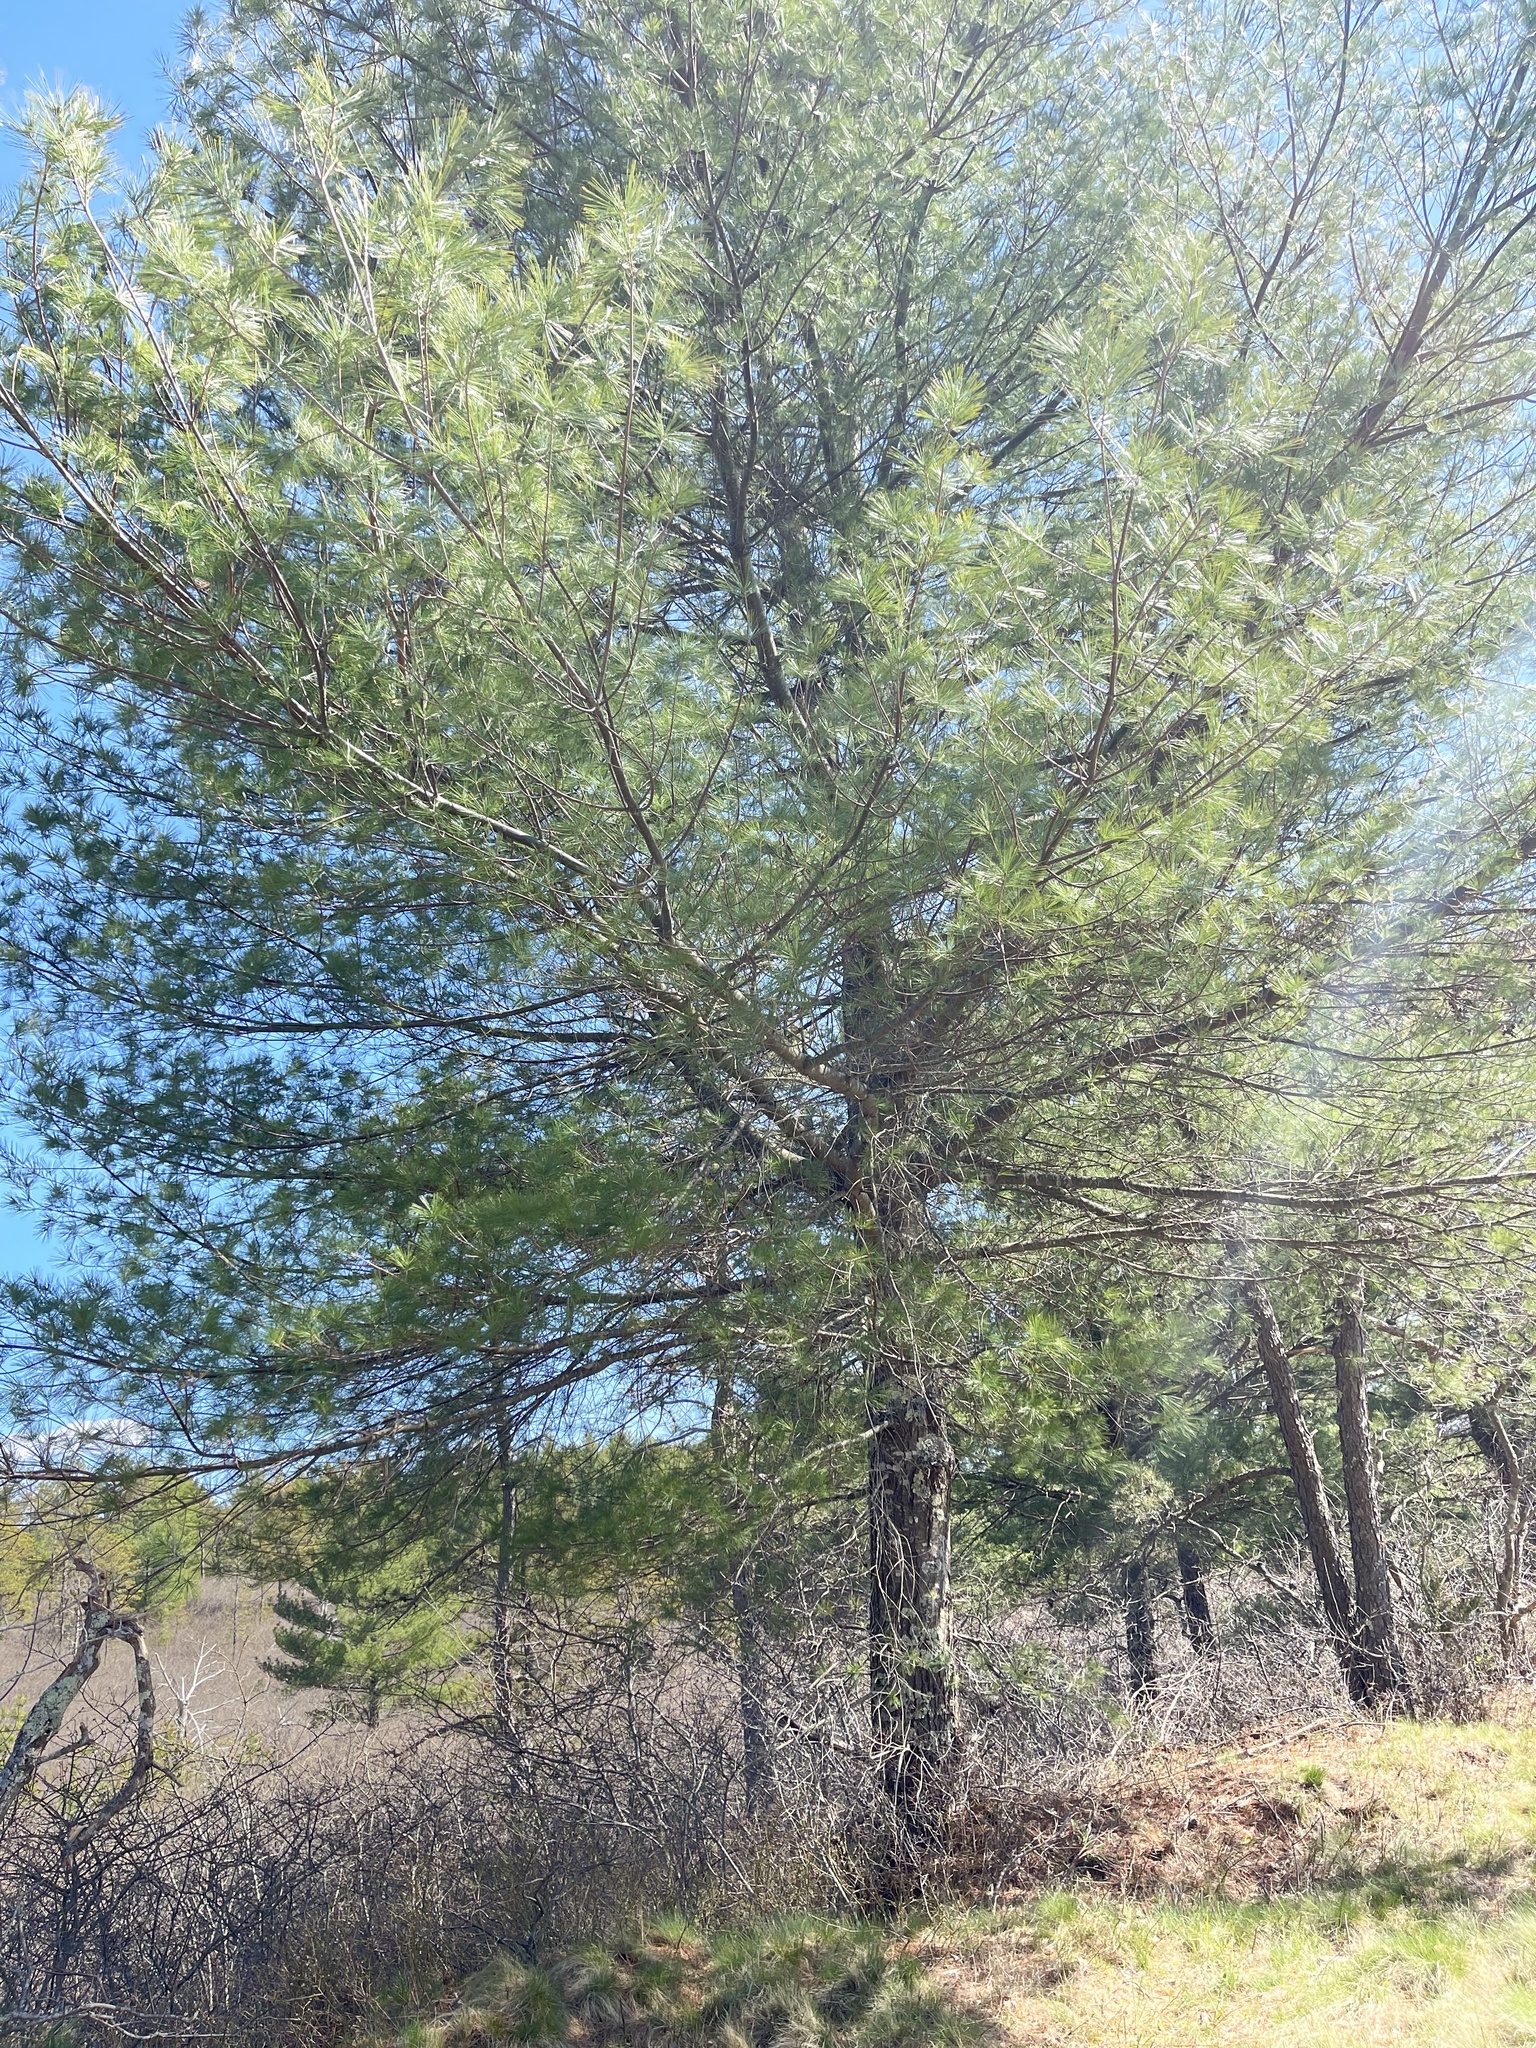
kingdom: Plantae
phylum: Tracheophyta
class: Pinopsida
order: Pinales
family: Pinaceae
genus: Pinus
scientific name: Pinus strobus
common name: Weymouth pine
